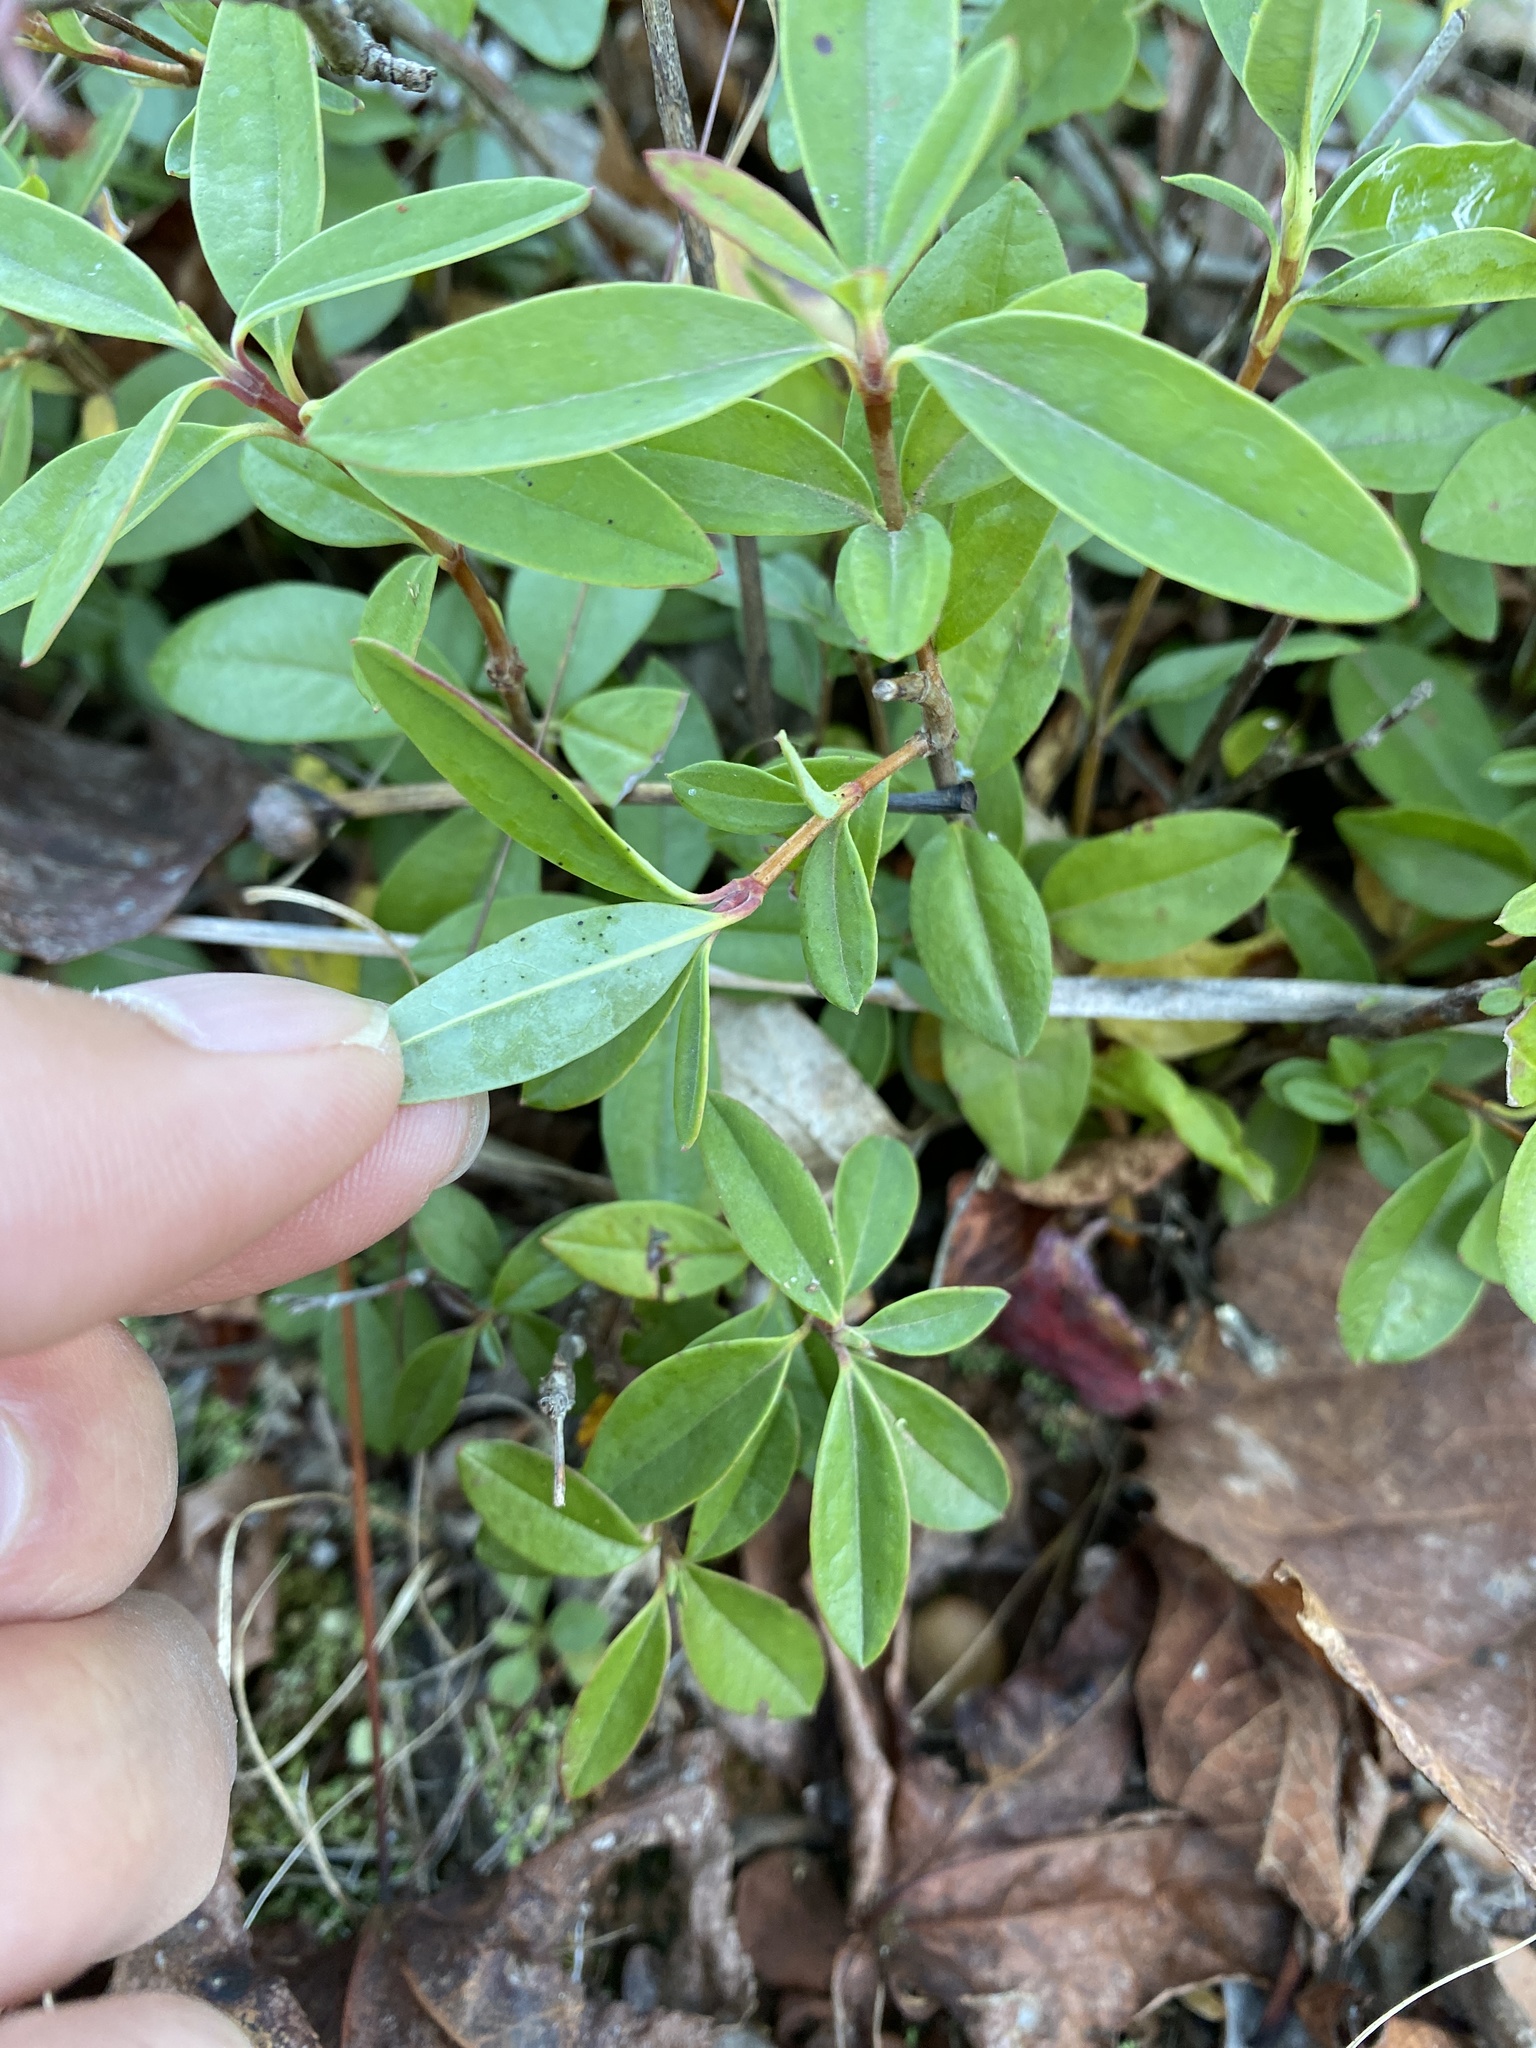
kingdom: Plantae
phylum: Tracheophyta
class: Magnoliopsida
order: Ericales
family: Ericaceae
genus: Kalmia
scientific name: Kalmia angustifolia
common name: Sheep-laurel
